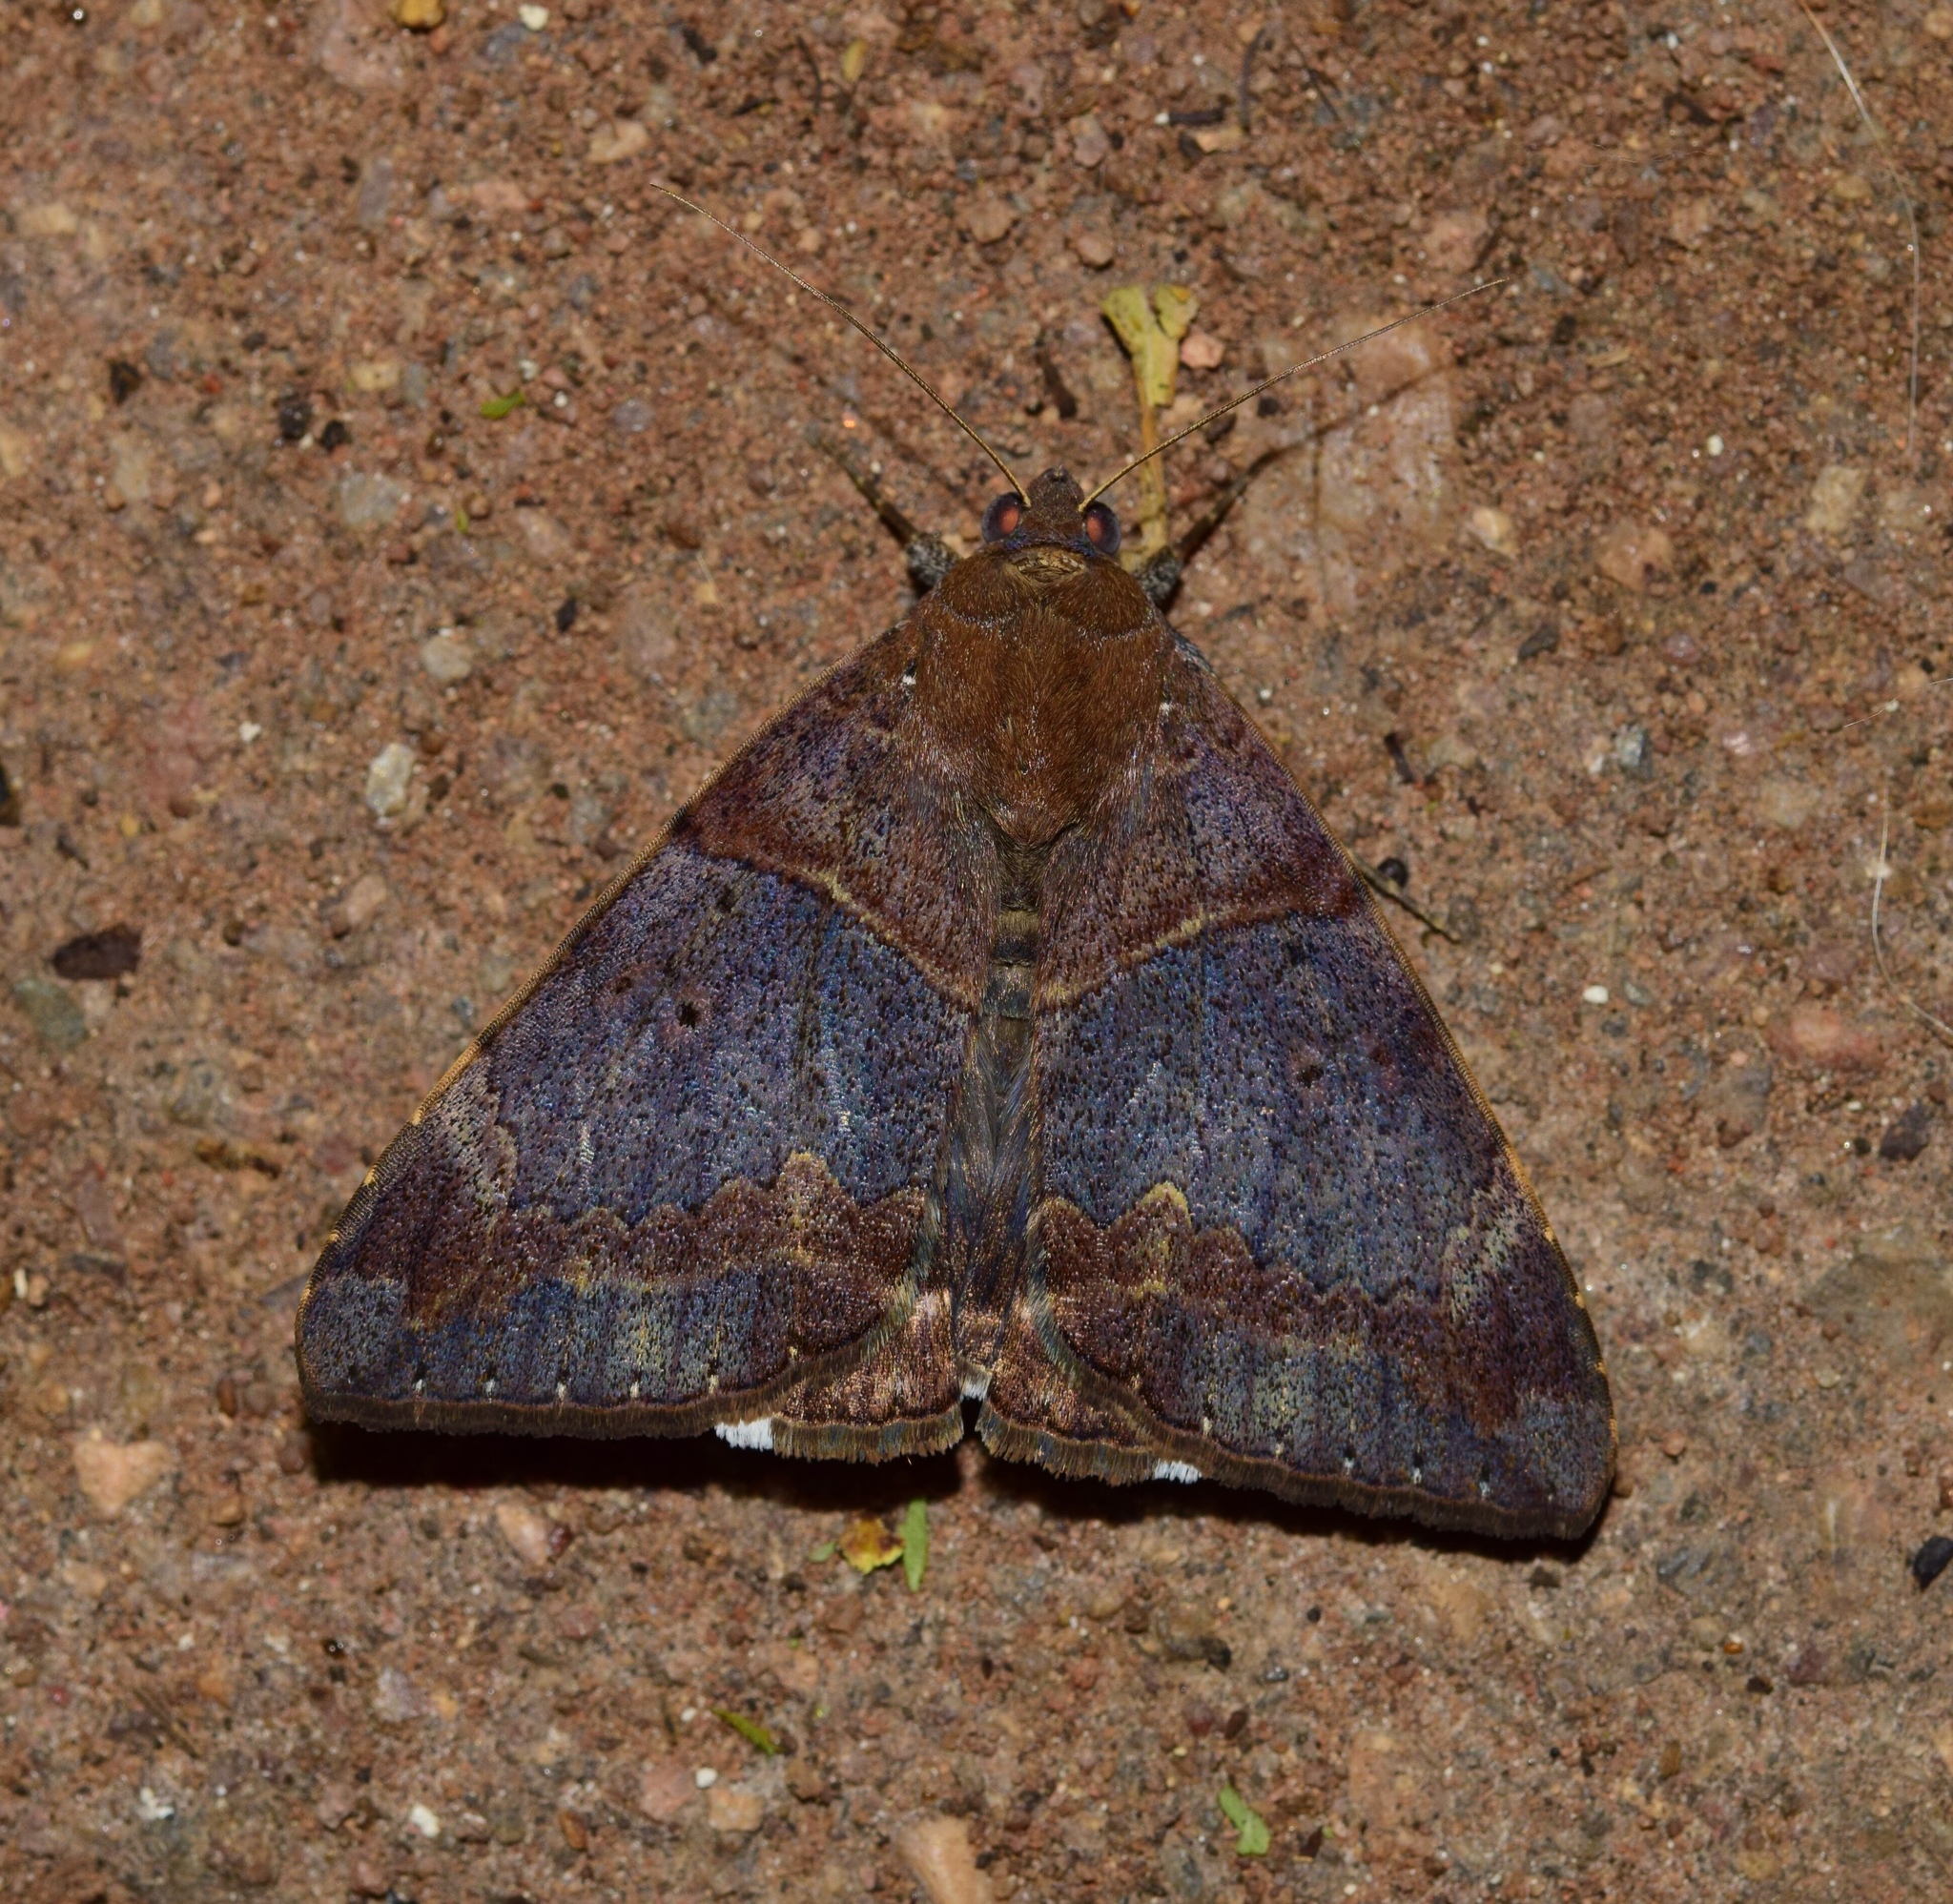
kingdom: Animalia
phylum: Arthropoda
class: Insecta
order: Lepidoptera
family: Erebidae
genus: Achaea
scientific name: Achaea lienardi
